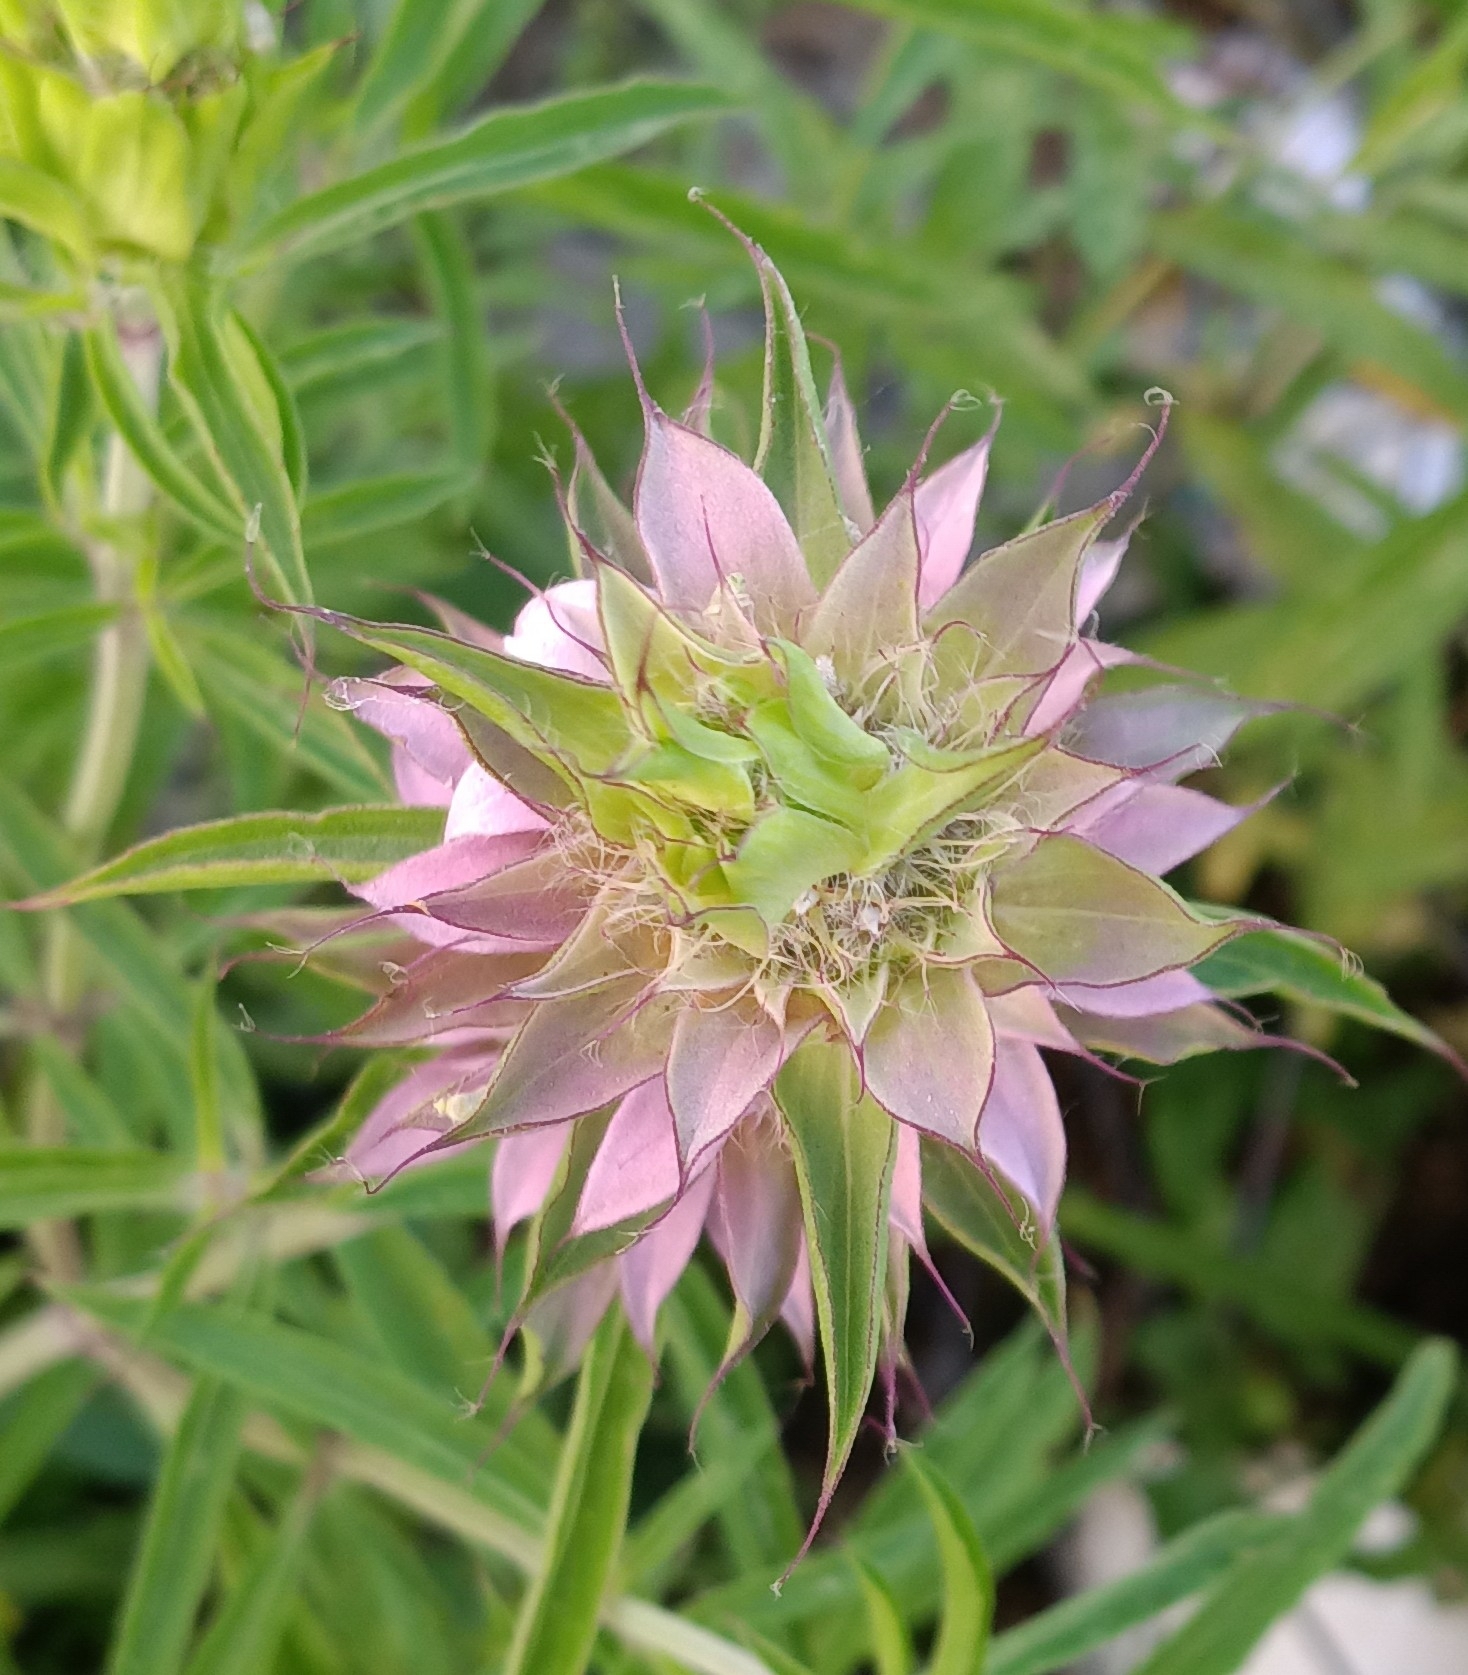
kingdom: Plantae
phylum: Tracheophyta
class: Magnoliopsida
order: Lamiales
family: Lamiaceae
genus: Monarda
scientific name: Monarda citriodora
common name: Lemon beebalm
